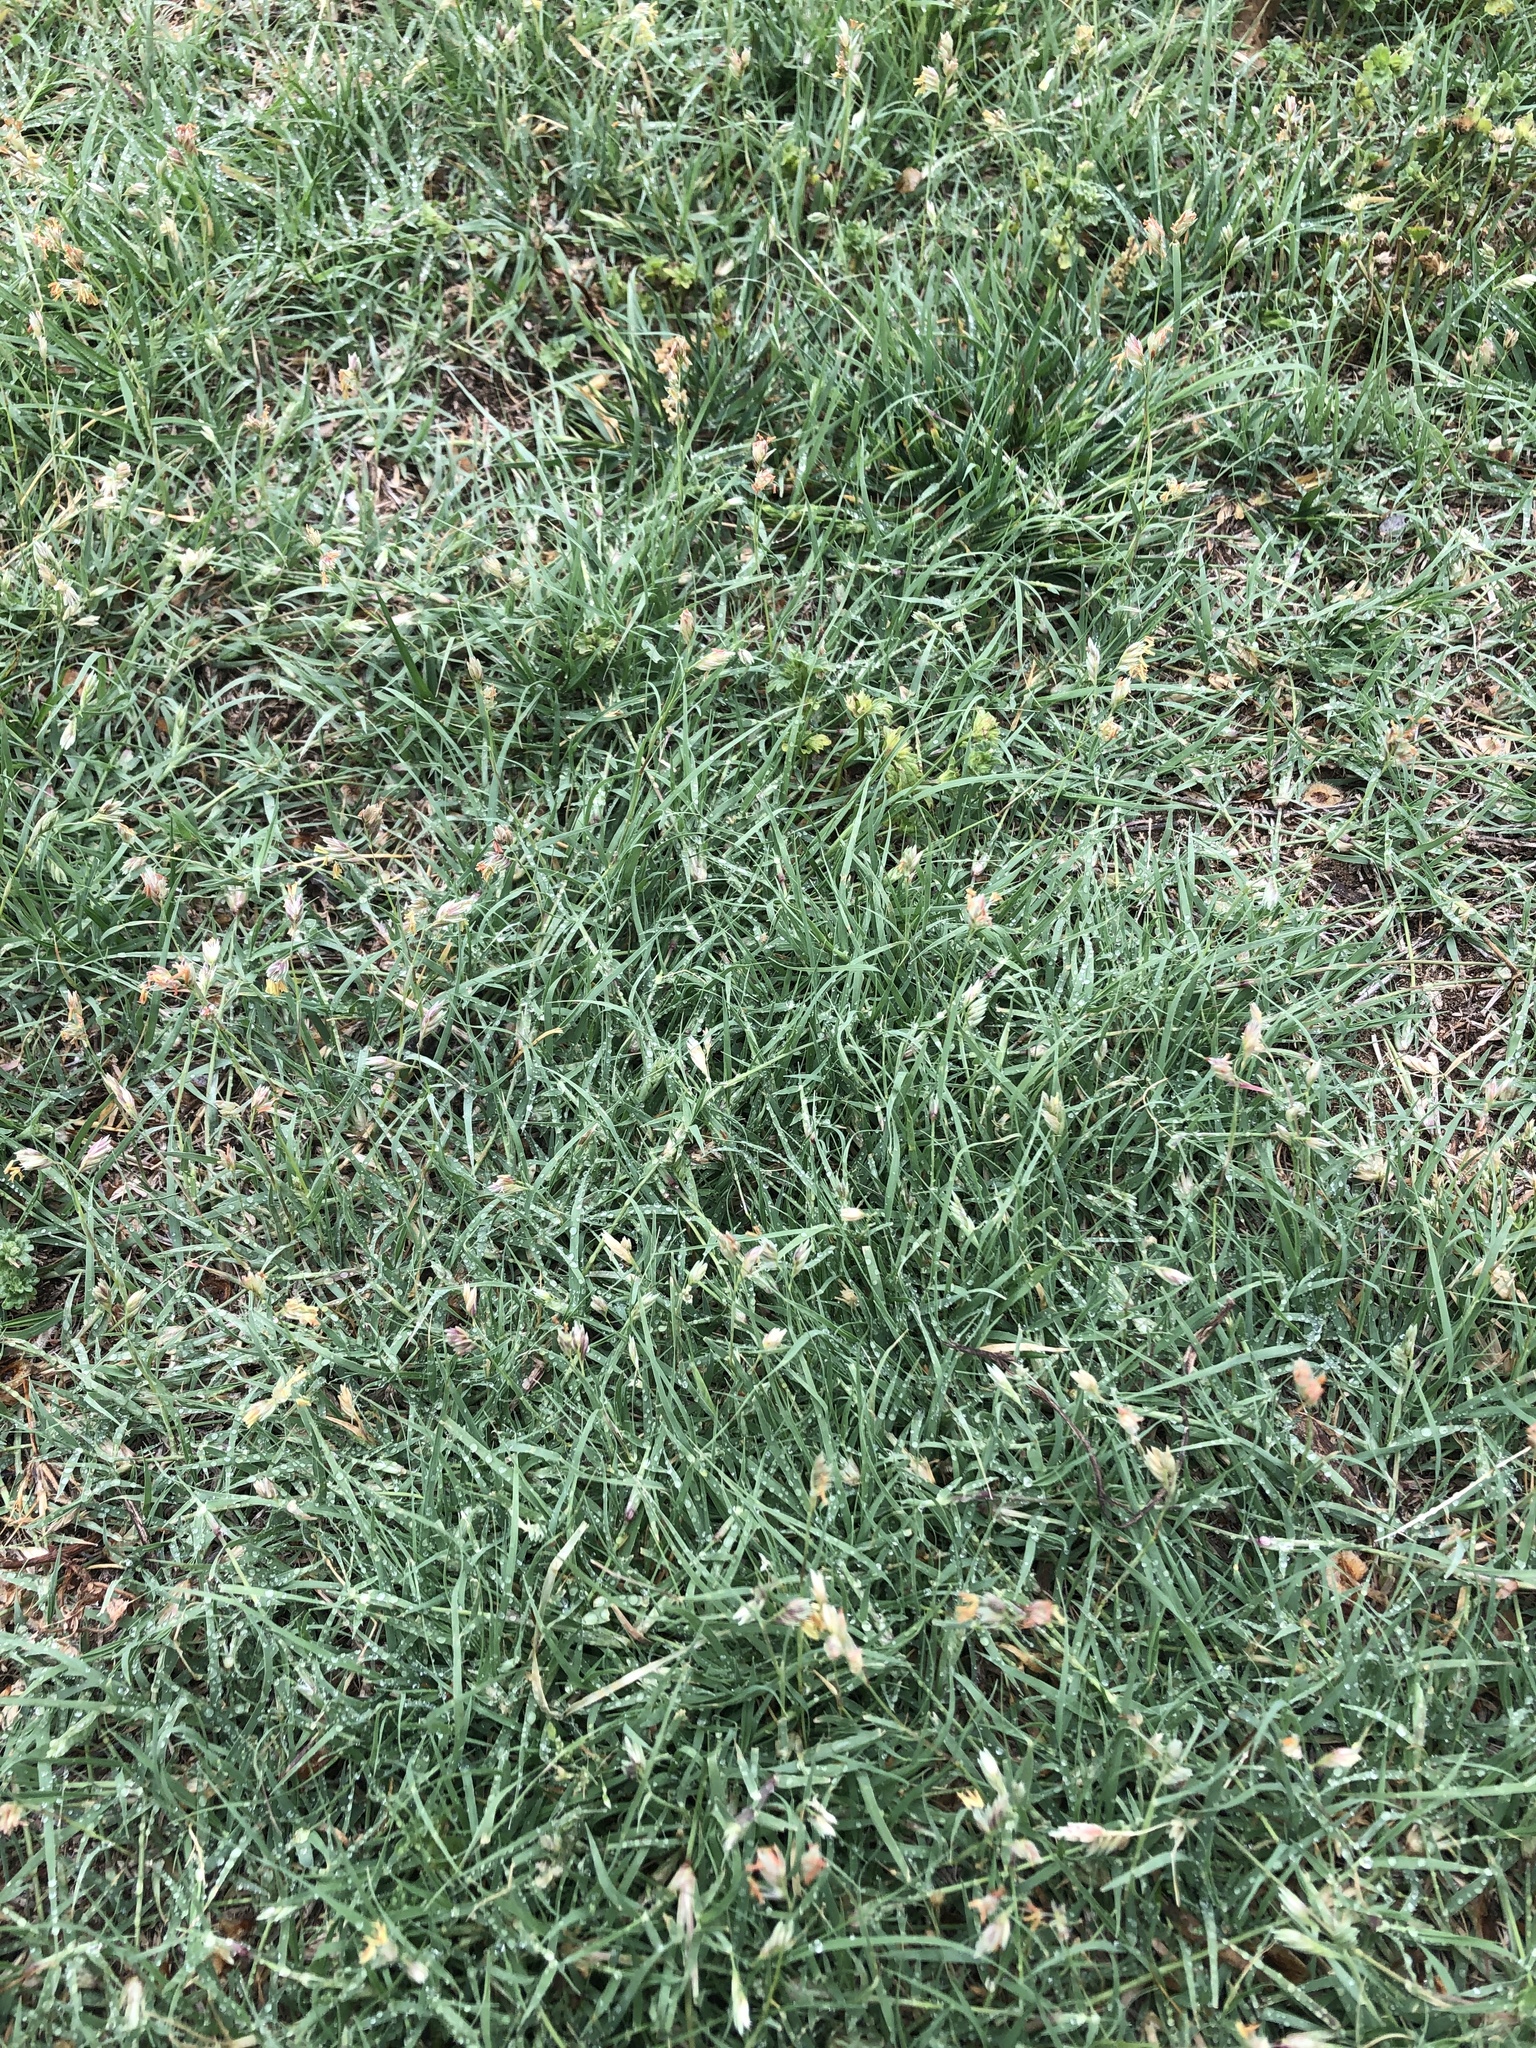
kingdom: Plantae
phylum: Tracheophyta
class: Liliopsida
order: Poales
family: Poaceae
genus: Bouteloua
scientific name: Bouteloua dactyloides
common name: Buffalo grass
